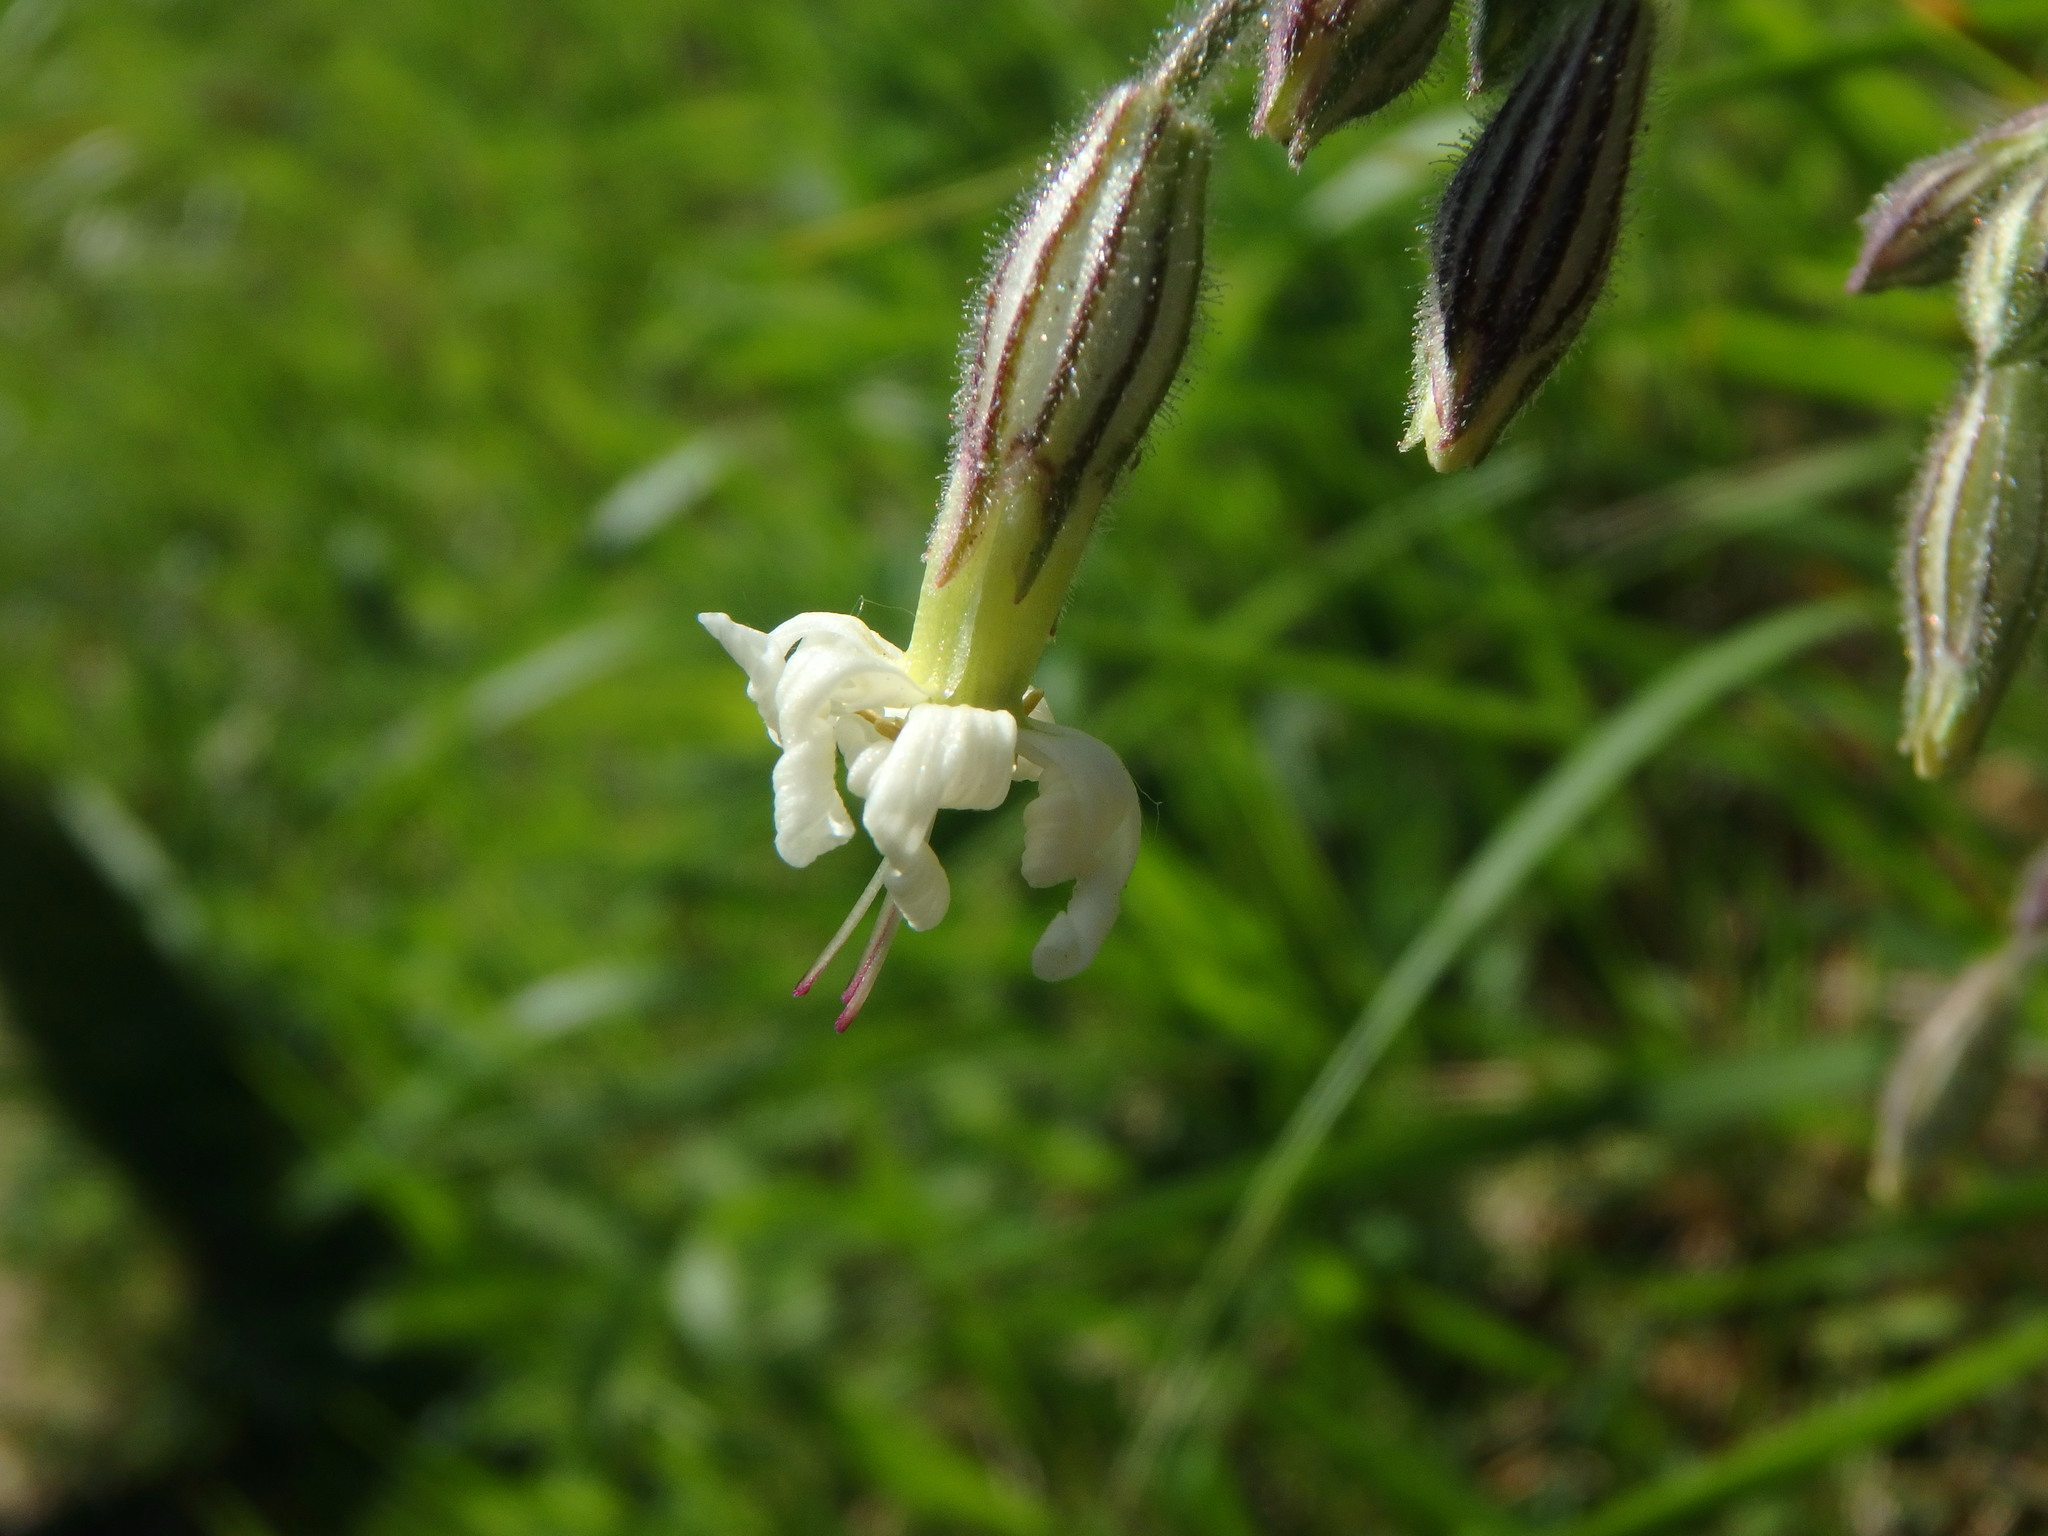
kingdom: Plantae
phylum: Tracheophyta
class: Magnoliopsida
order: Caryophyllales
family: Caryophyllaceae
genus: Silene
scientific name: Silene nutans
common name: Nottingham catchfly
